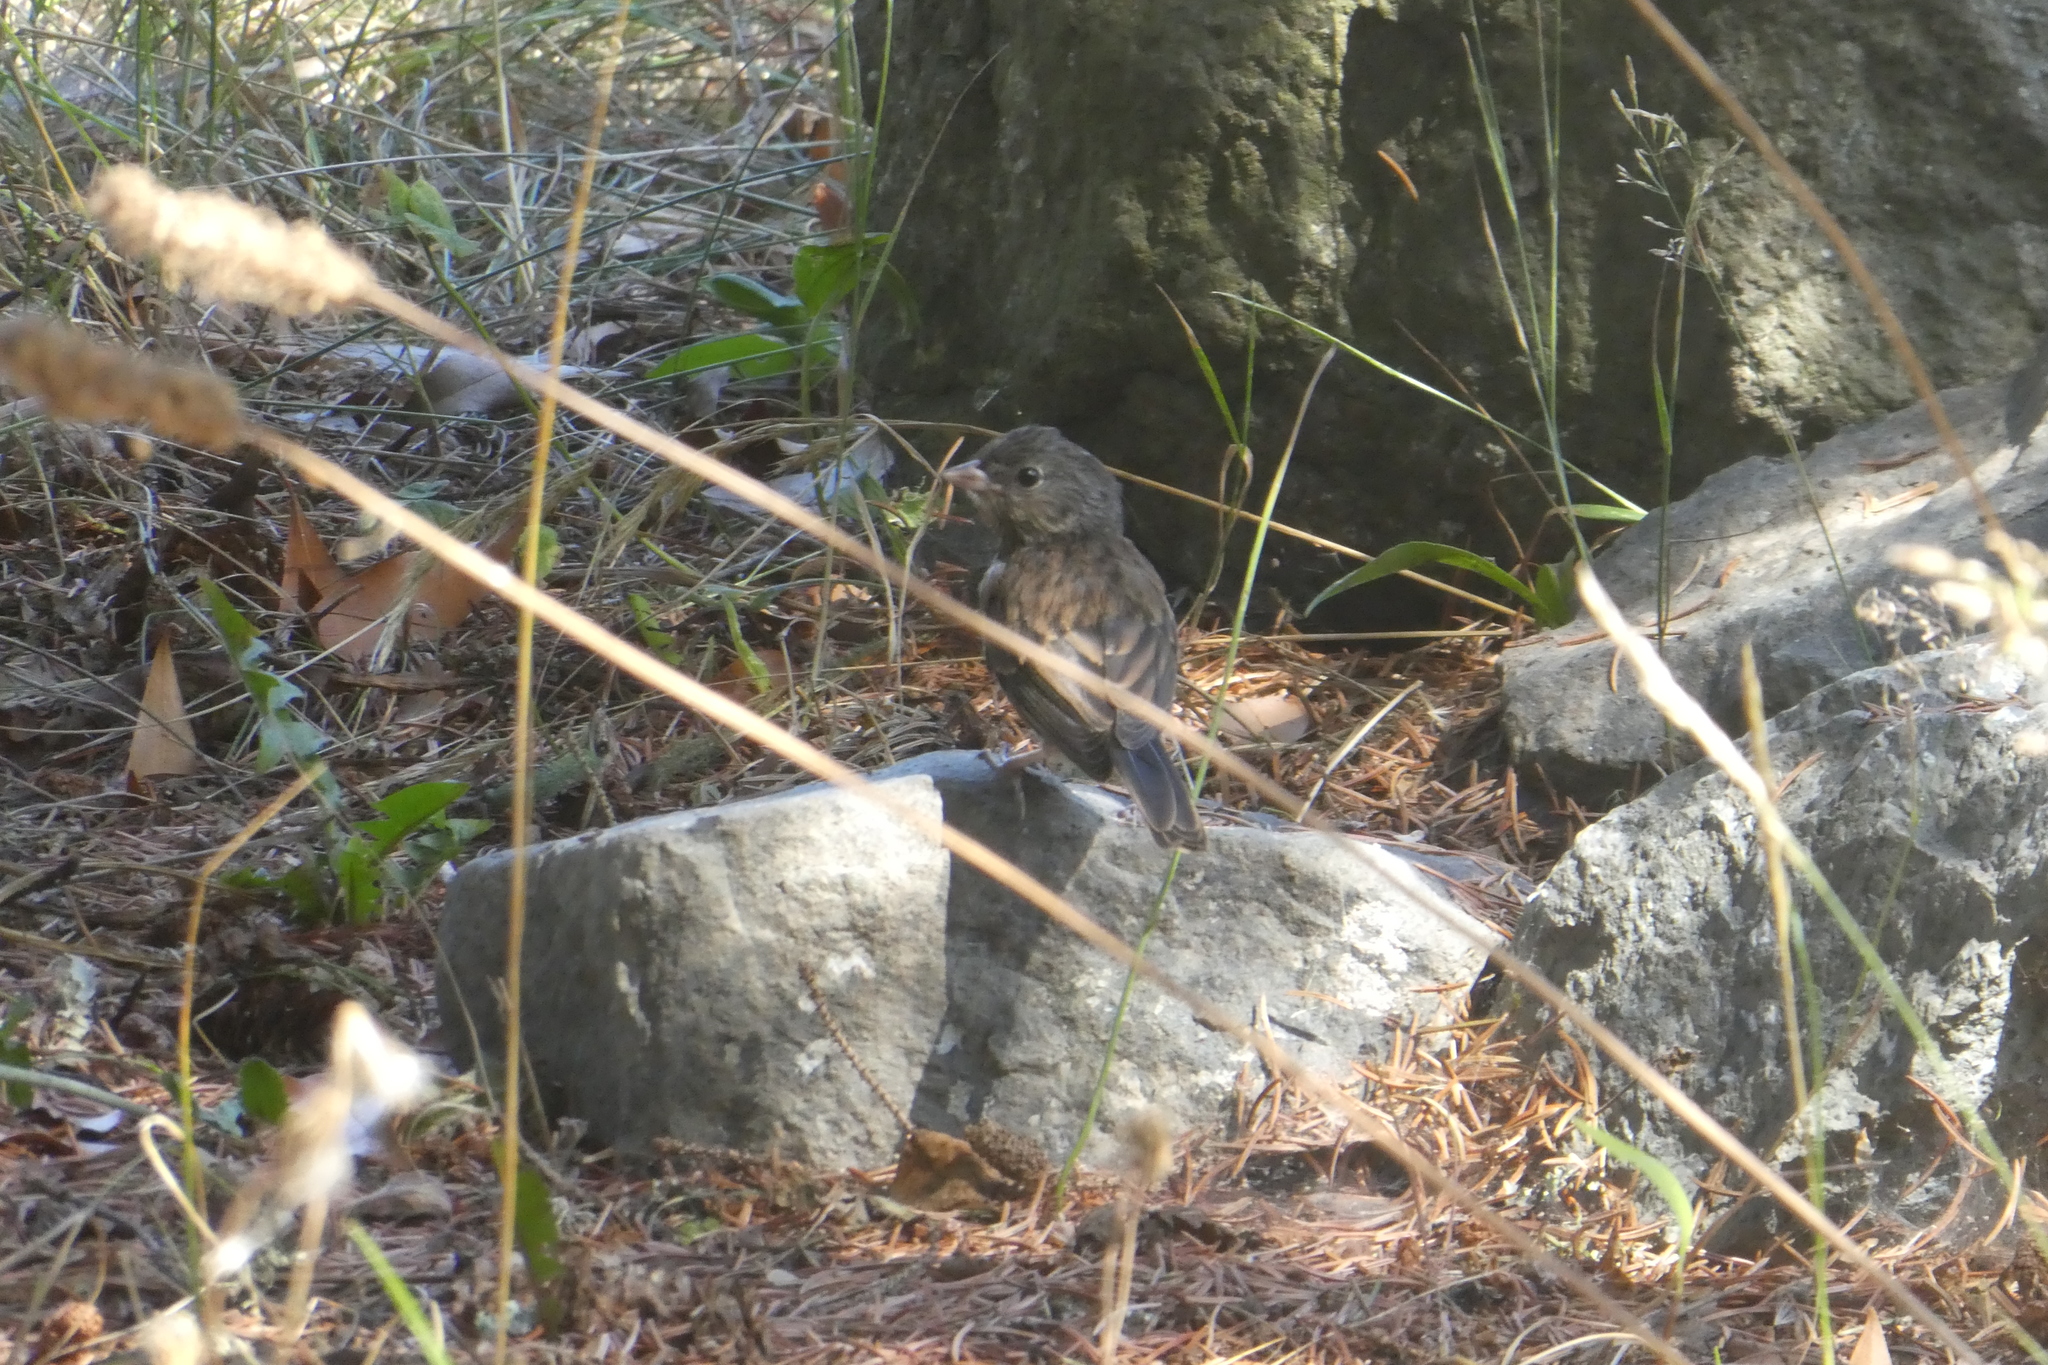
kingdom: Animalia
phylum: Chordata
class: Aves
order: Passeriformes
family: Passerellidae
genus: Junco
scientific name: Junco hyemalis
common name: Dark-eyed junco
